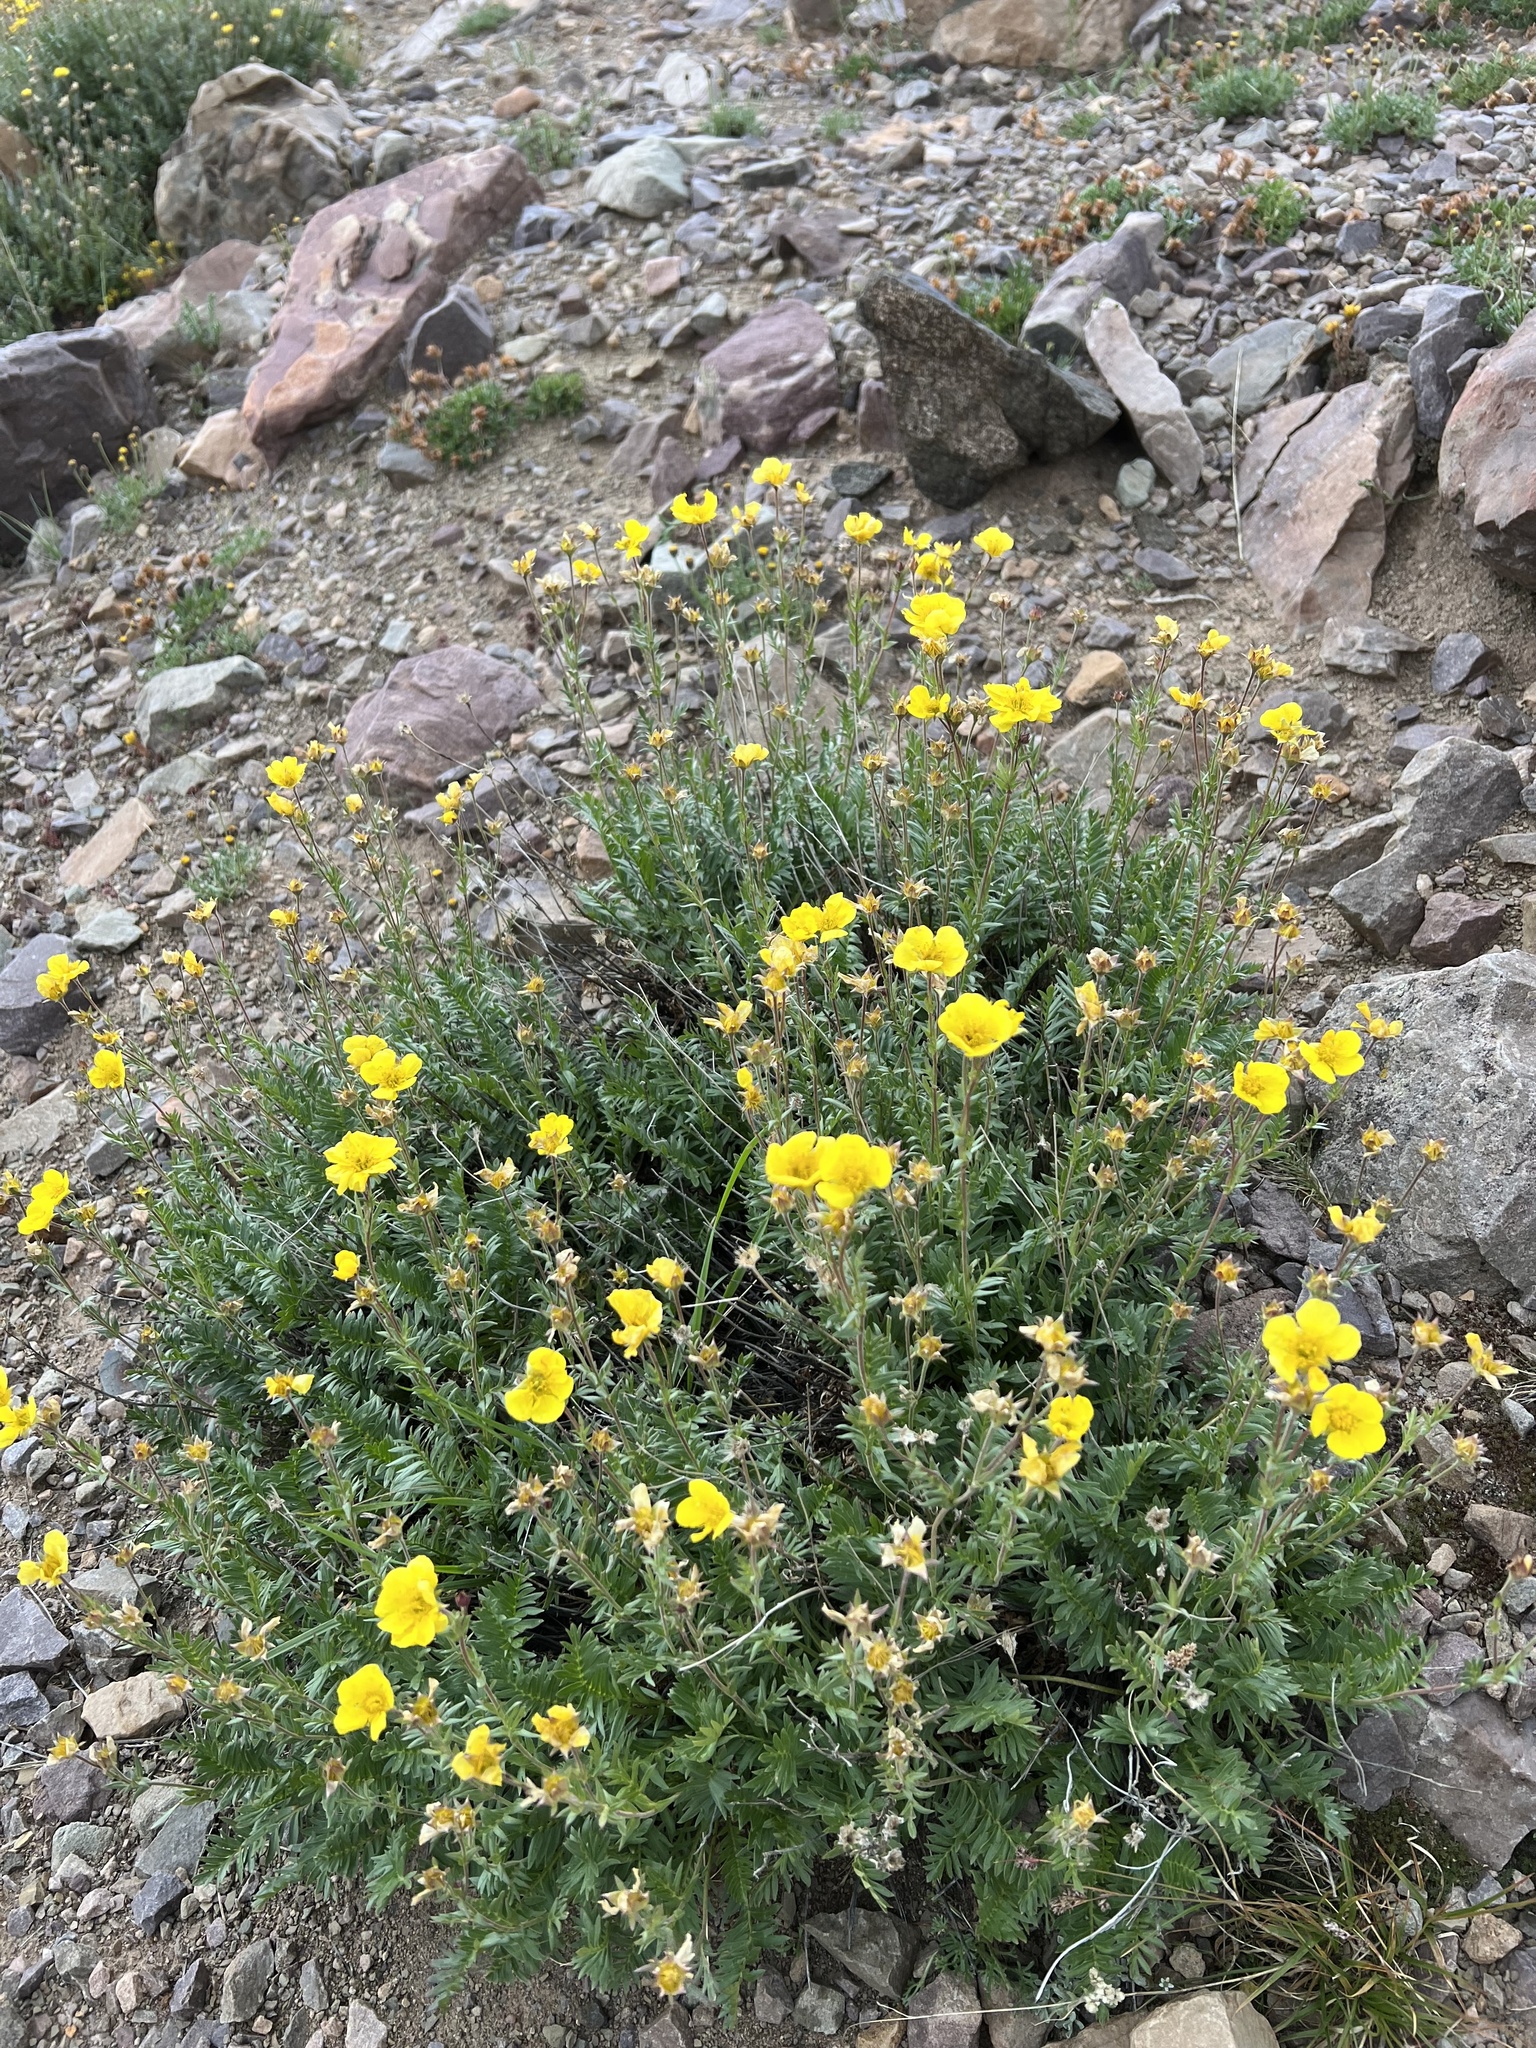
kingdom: Plantae
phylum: Tracheophyta
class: Magnoliopsida
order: Rosales
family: Rosaceae
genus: Geum
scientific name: Geum rossii
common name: Alpine avens
